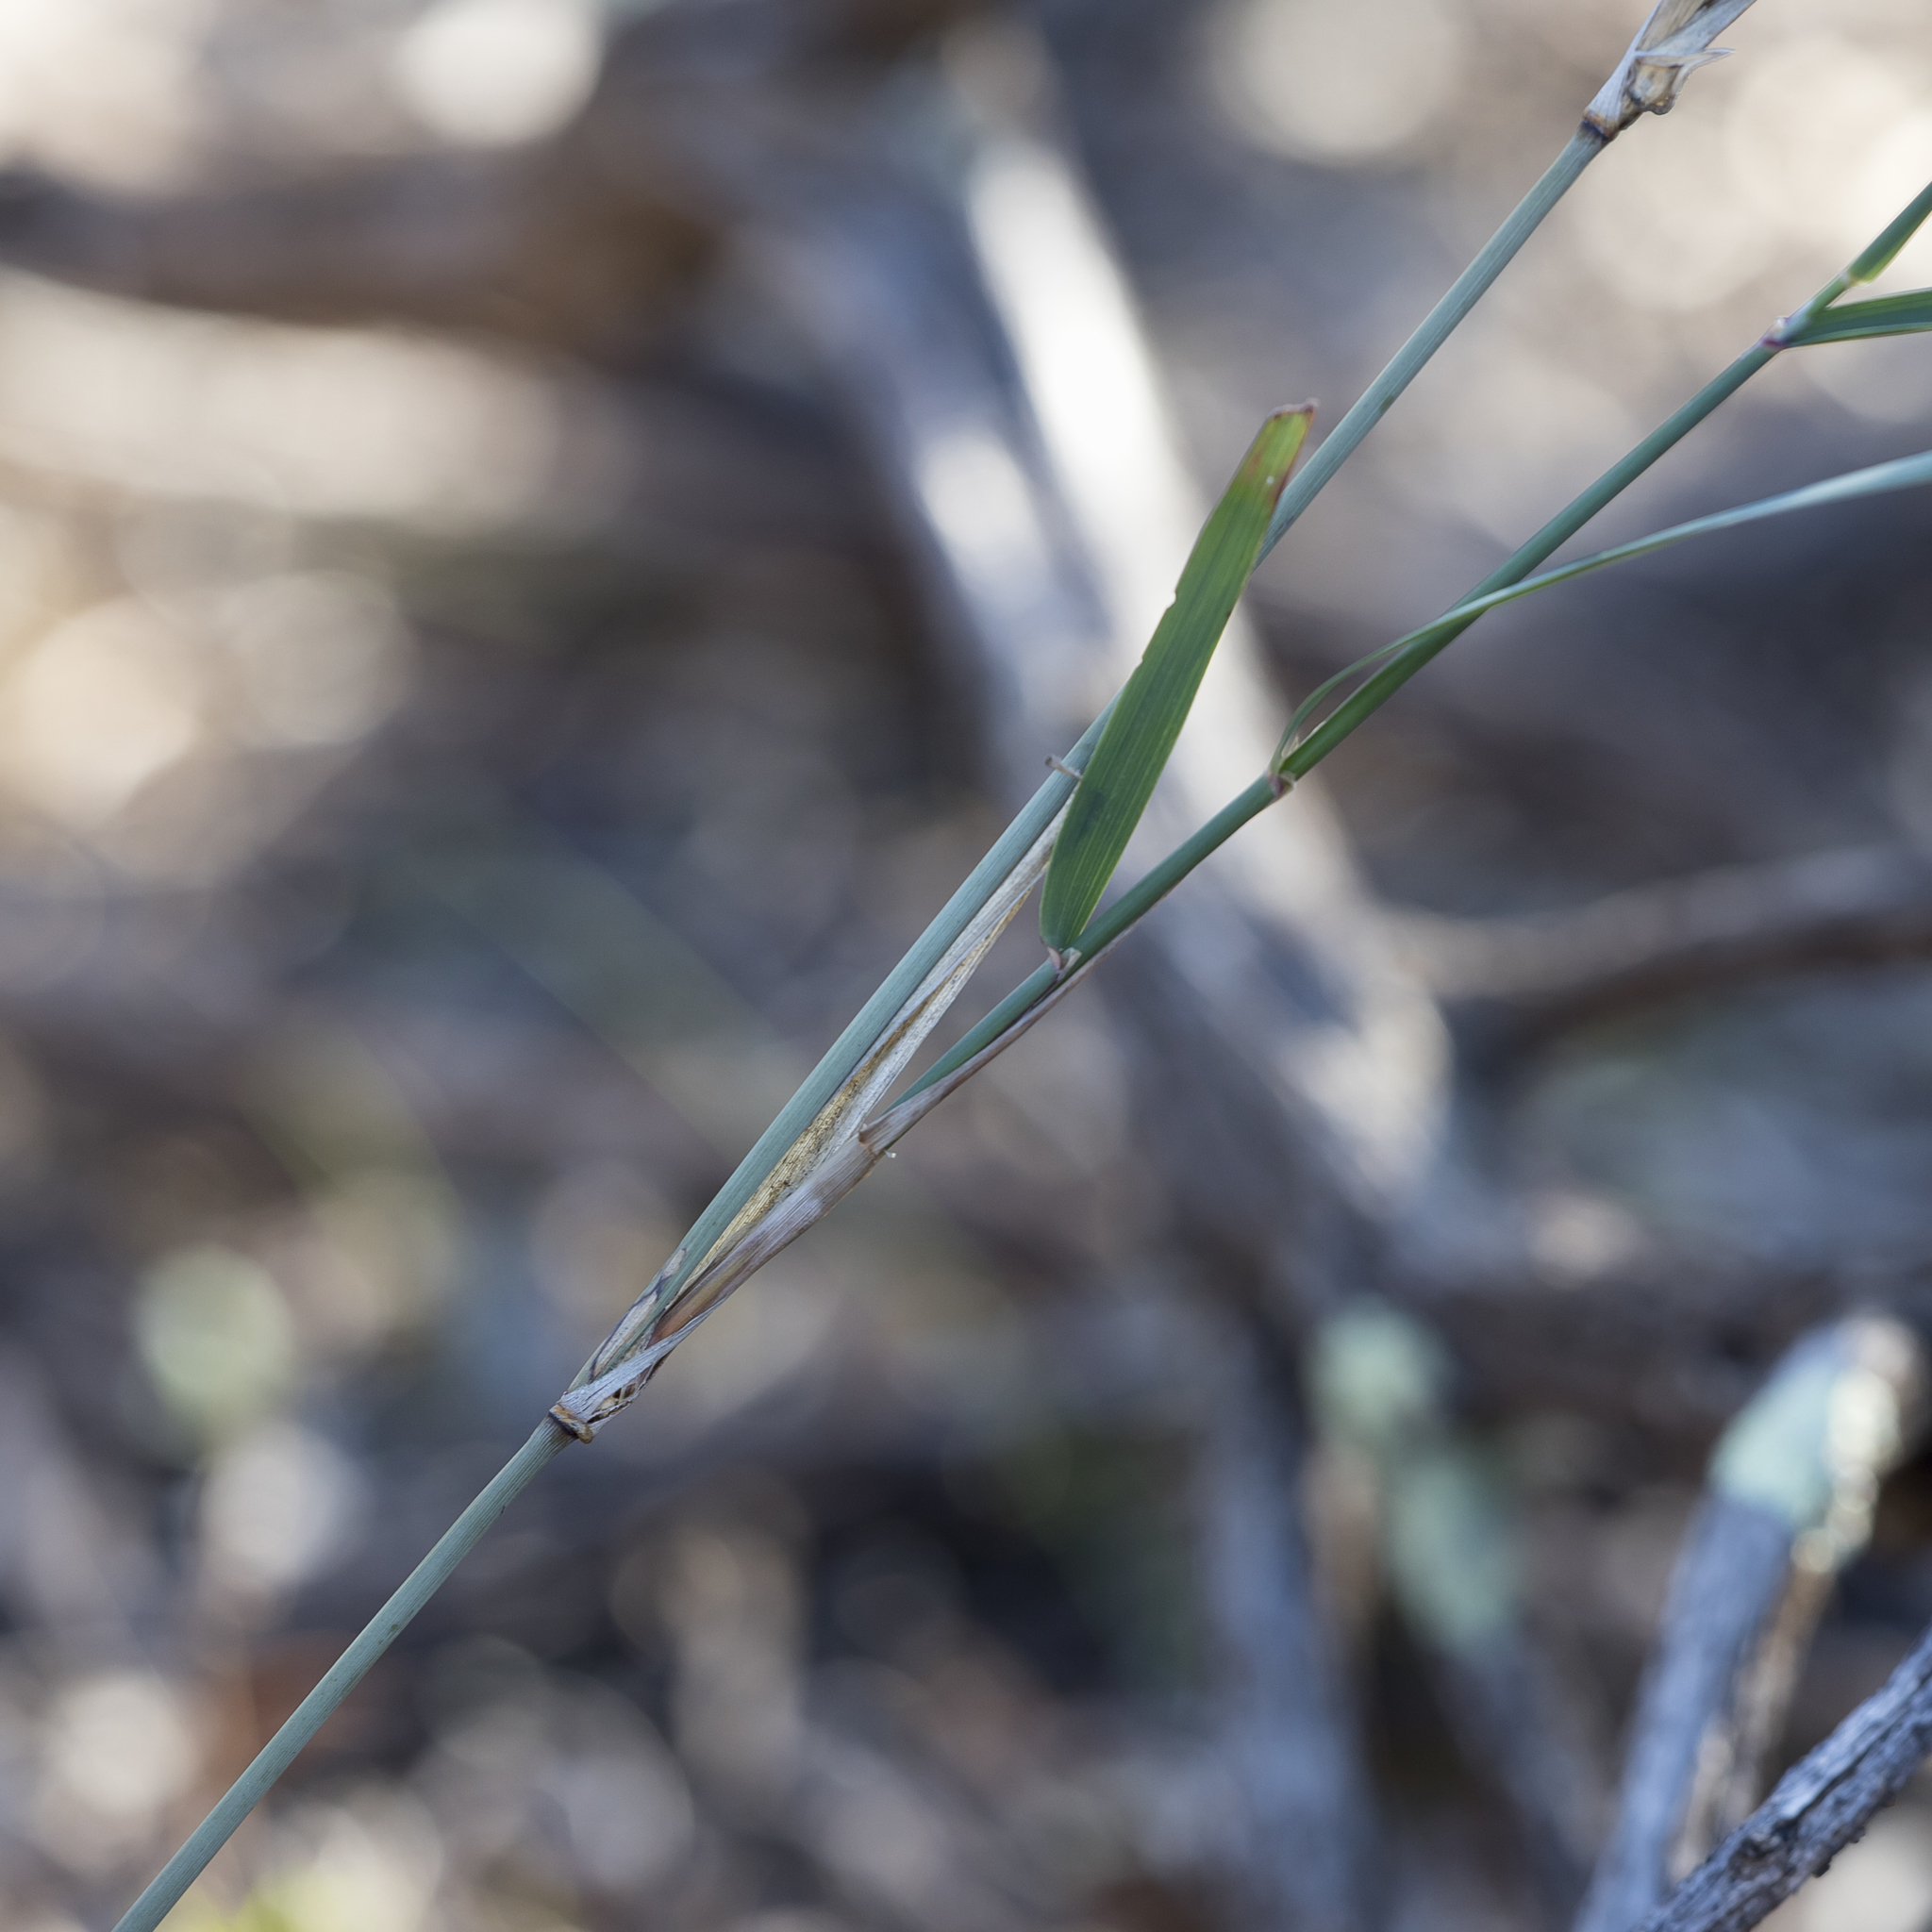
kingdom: Plantae
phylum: Tracheophyta
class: Liliopsida
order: Poales
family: Poaceae
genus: Austrostipa
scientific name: Austrostipa platychaeta
